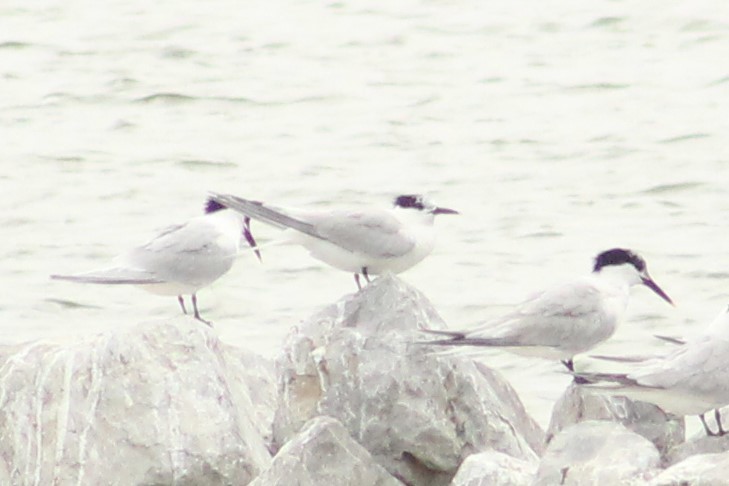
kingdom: Animalia
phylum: Chordata
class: Aves
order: Charadriiformes
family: Laridae
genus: Thalasseus
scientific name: Thalasseus sandvicensis
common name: Sandwich tern
